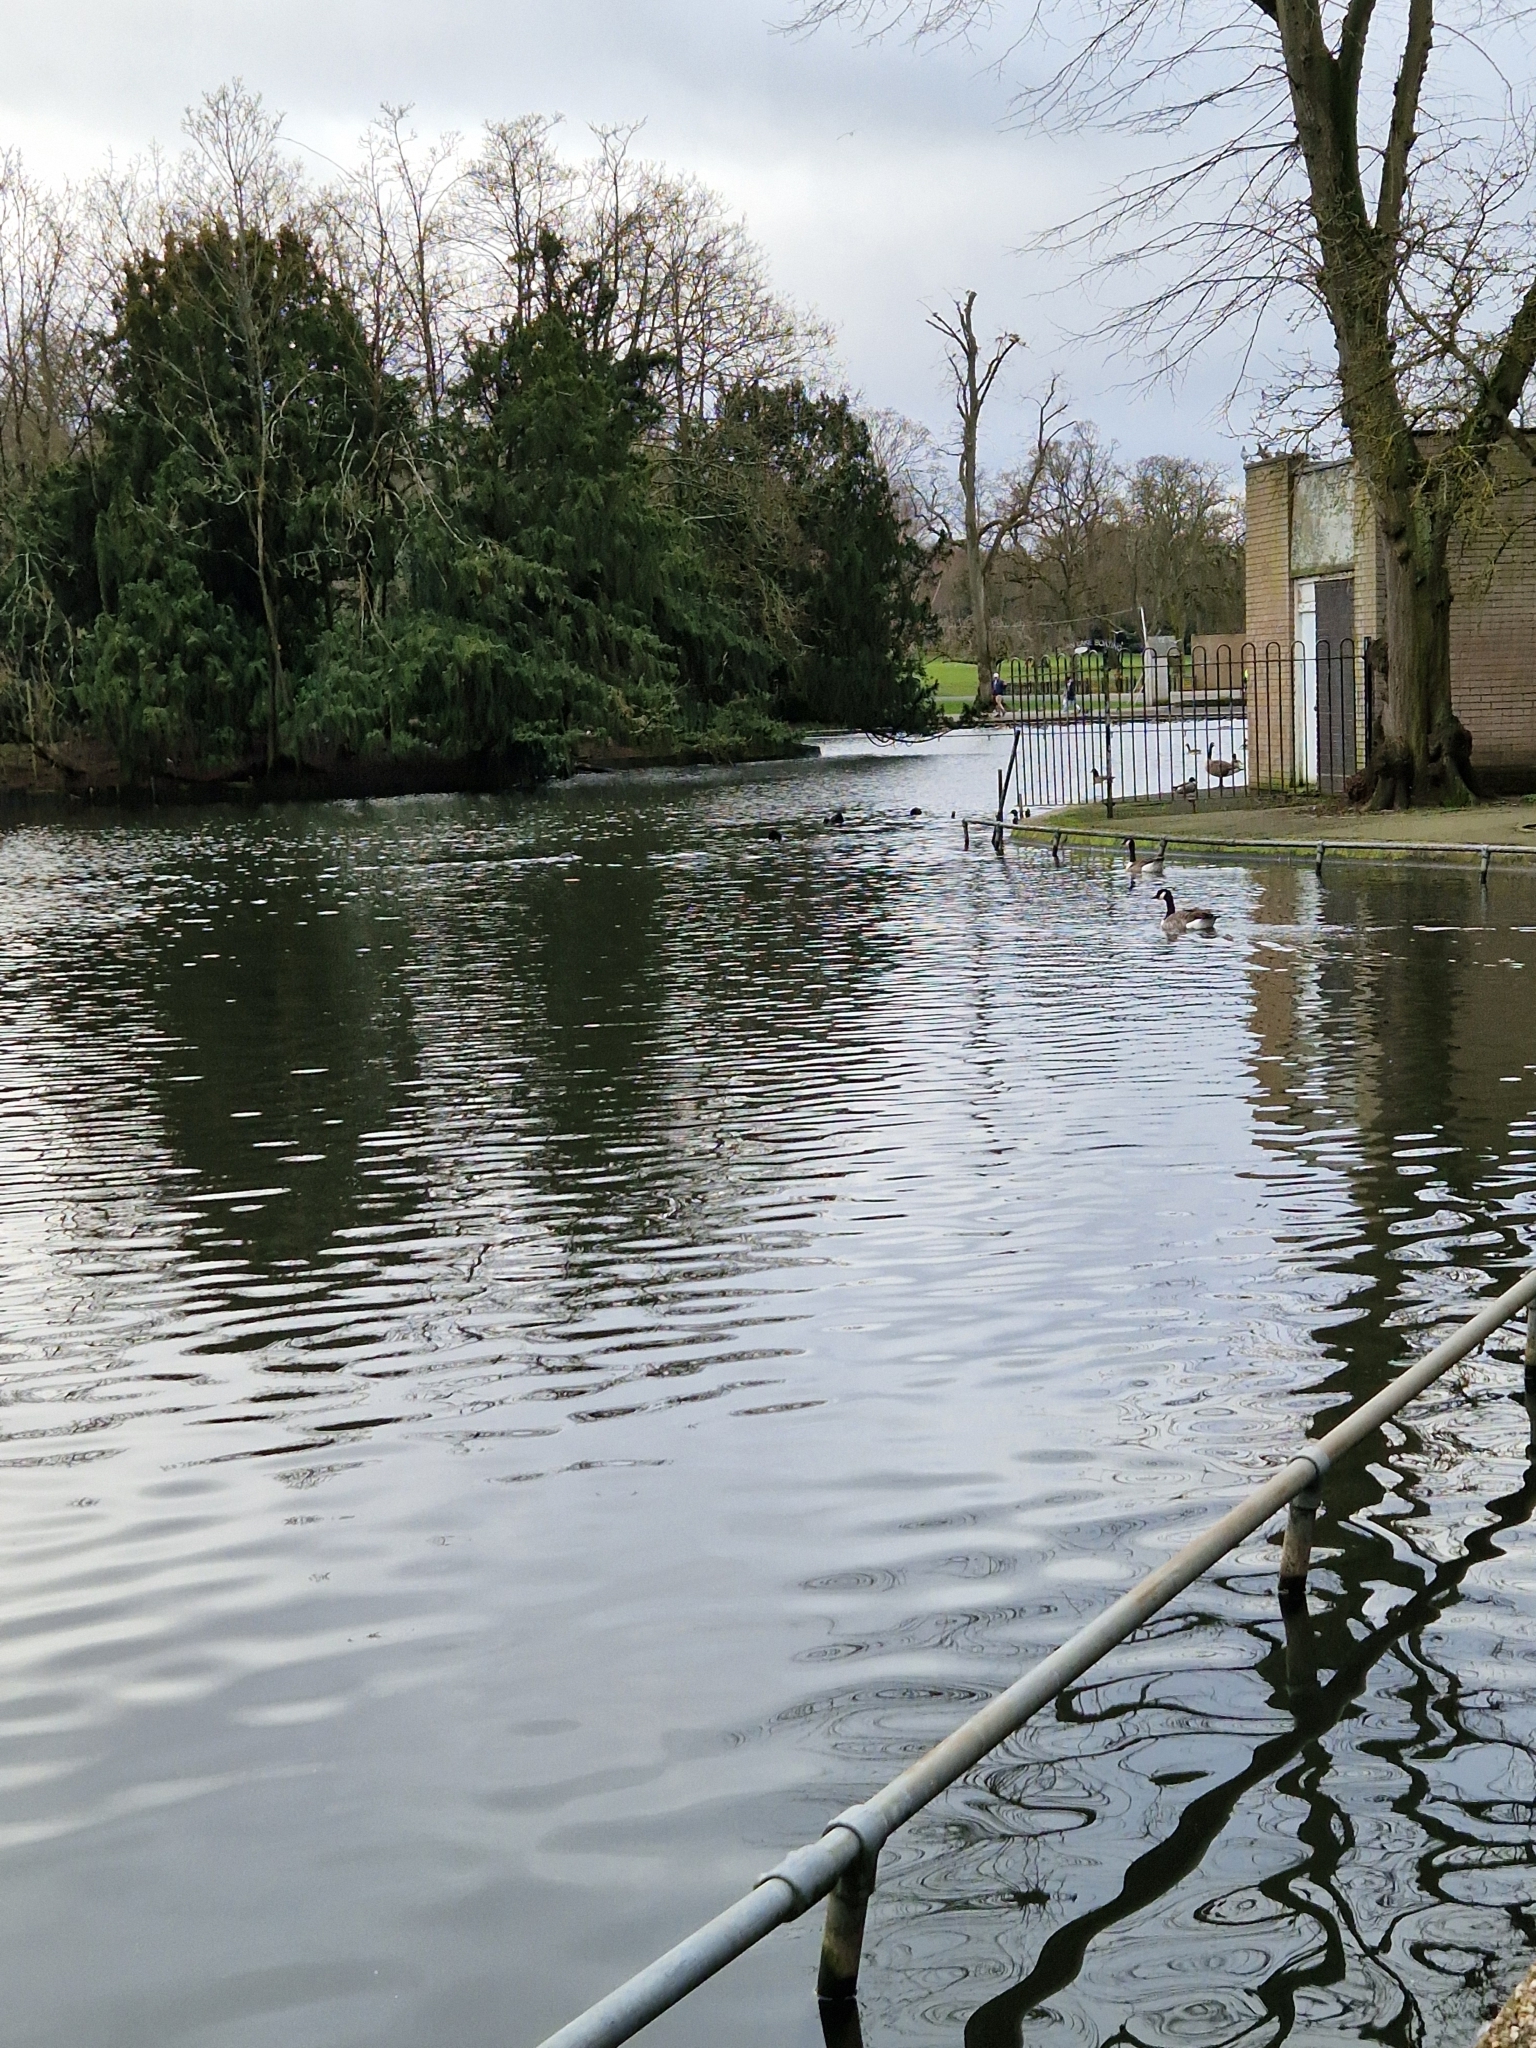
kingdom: Animalia
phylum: Chordata
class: Aves
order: Anseriformes
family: Anatidae
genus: Branta
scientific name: Branta canadensis
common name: Canada goose
